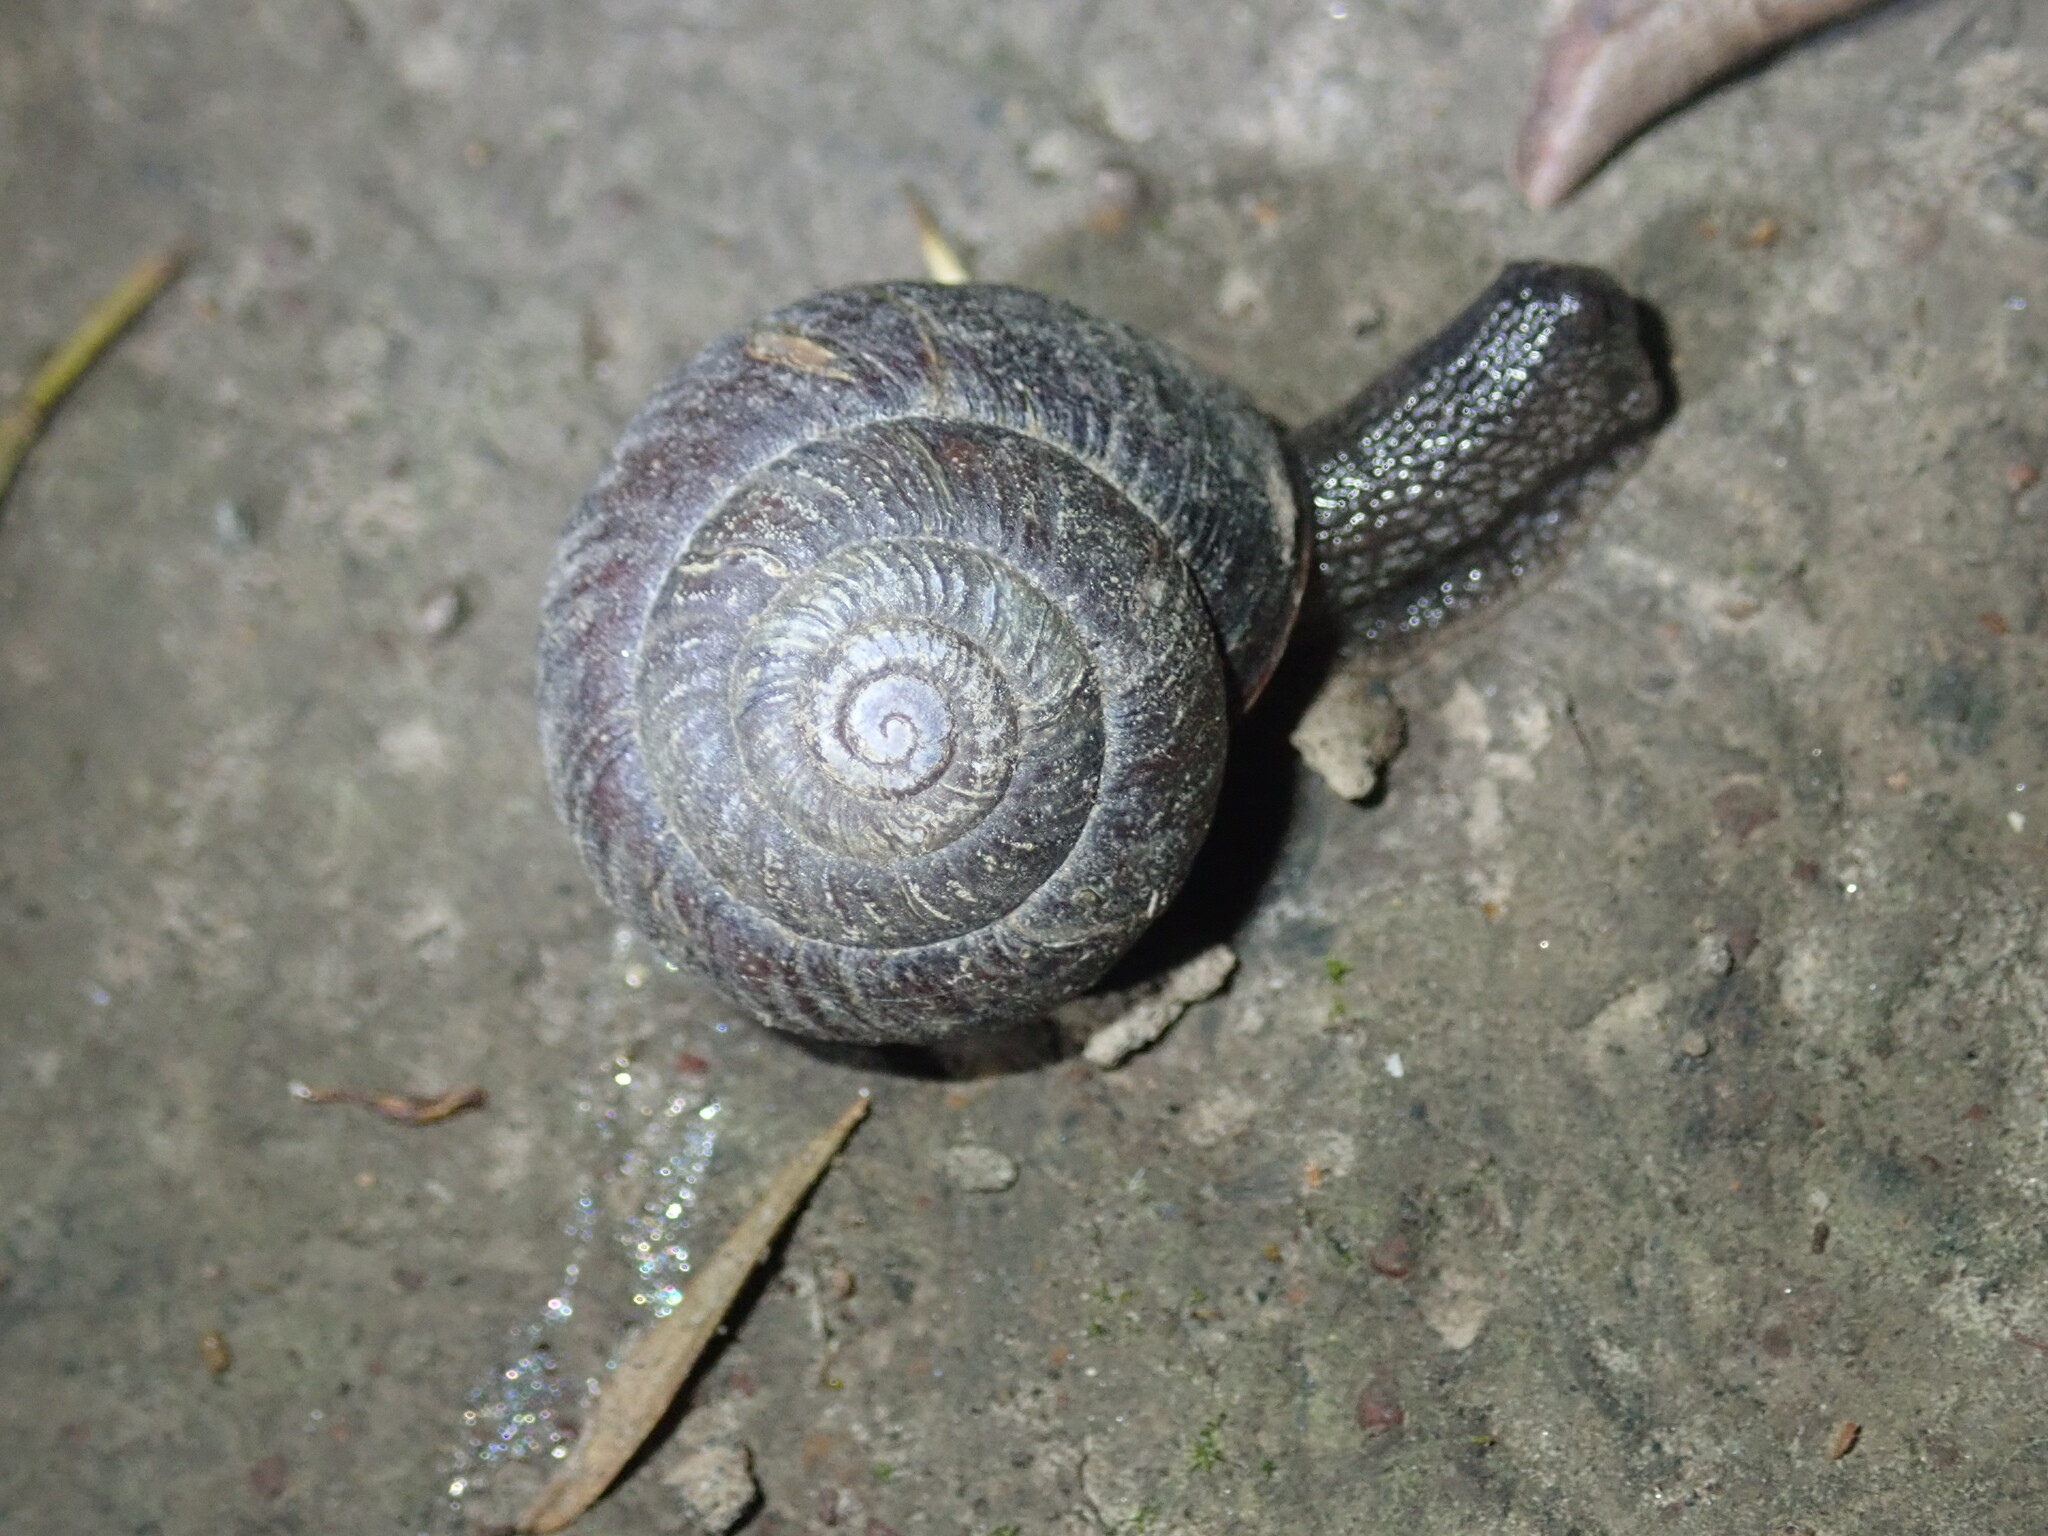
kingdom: Animalia
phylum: Mollusca
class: Gastropoda
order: Stylommatophora
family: Camaenidae
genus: Sauroconcha
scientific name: Sauroconcha sheai
